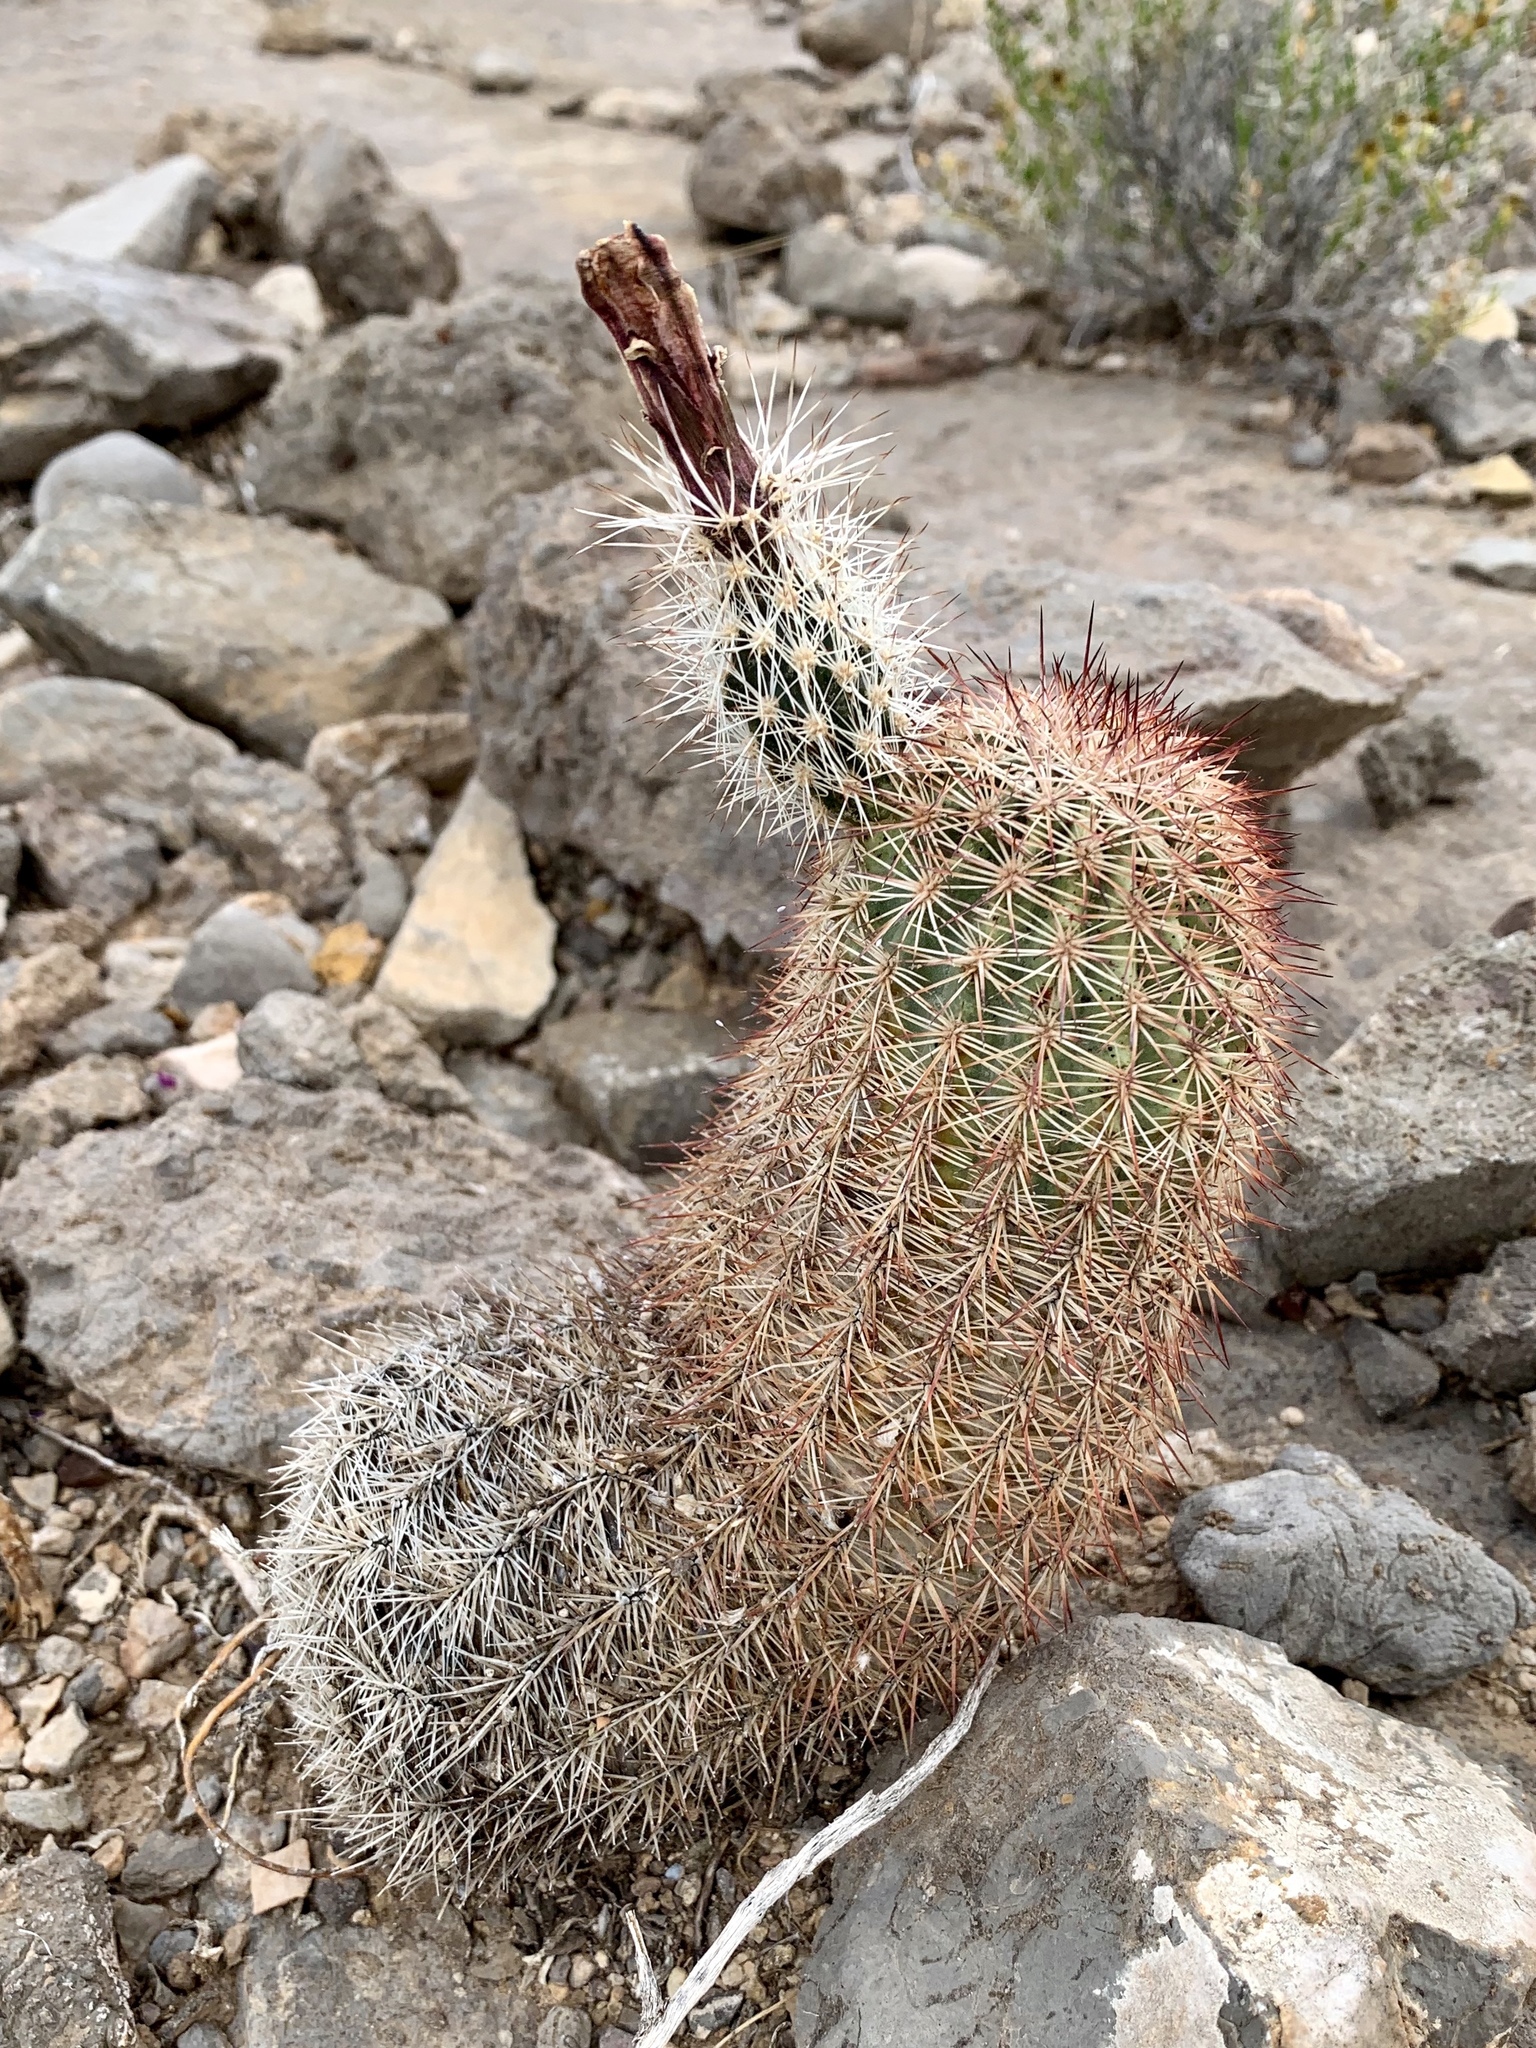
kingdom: Plantae
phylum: Tracheophyta
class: Magnoliopsida
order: Caryophyllales
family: Cactaceae
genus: Echinocereus
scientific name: Echinocereus dasyacanthus
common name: Spiny hedgehog cactus
